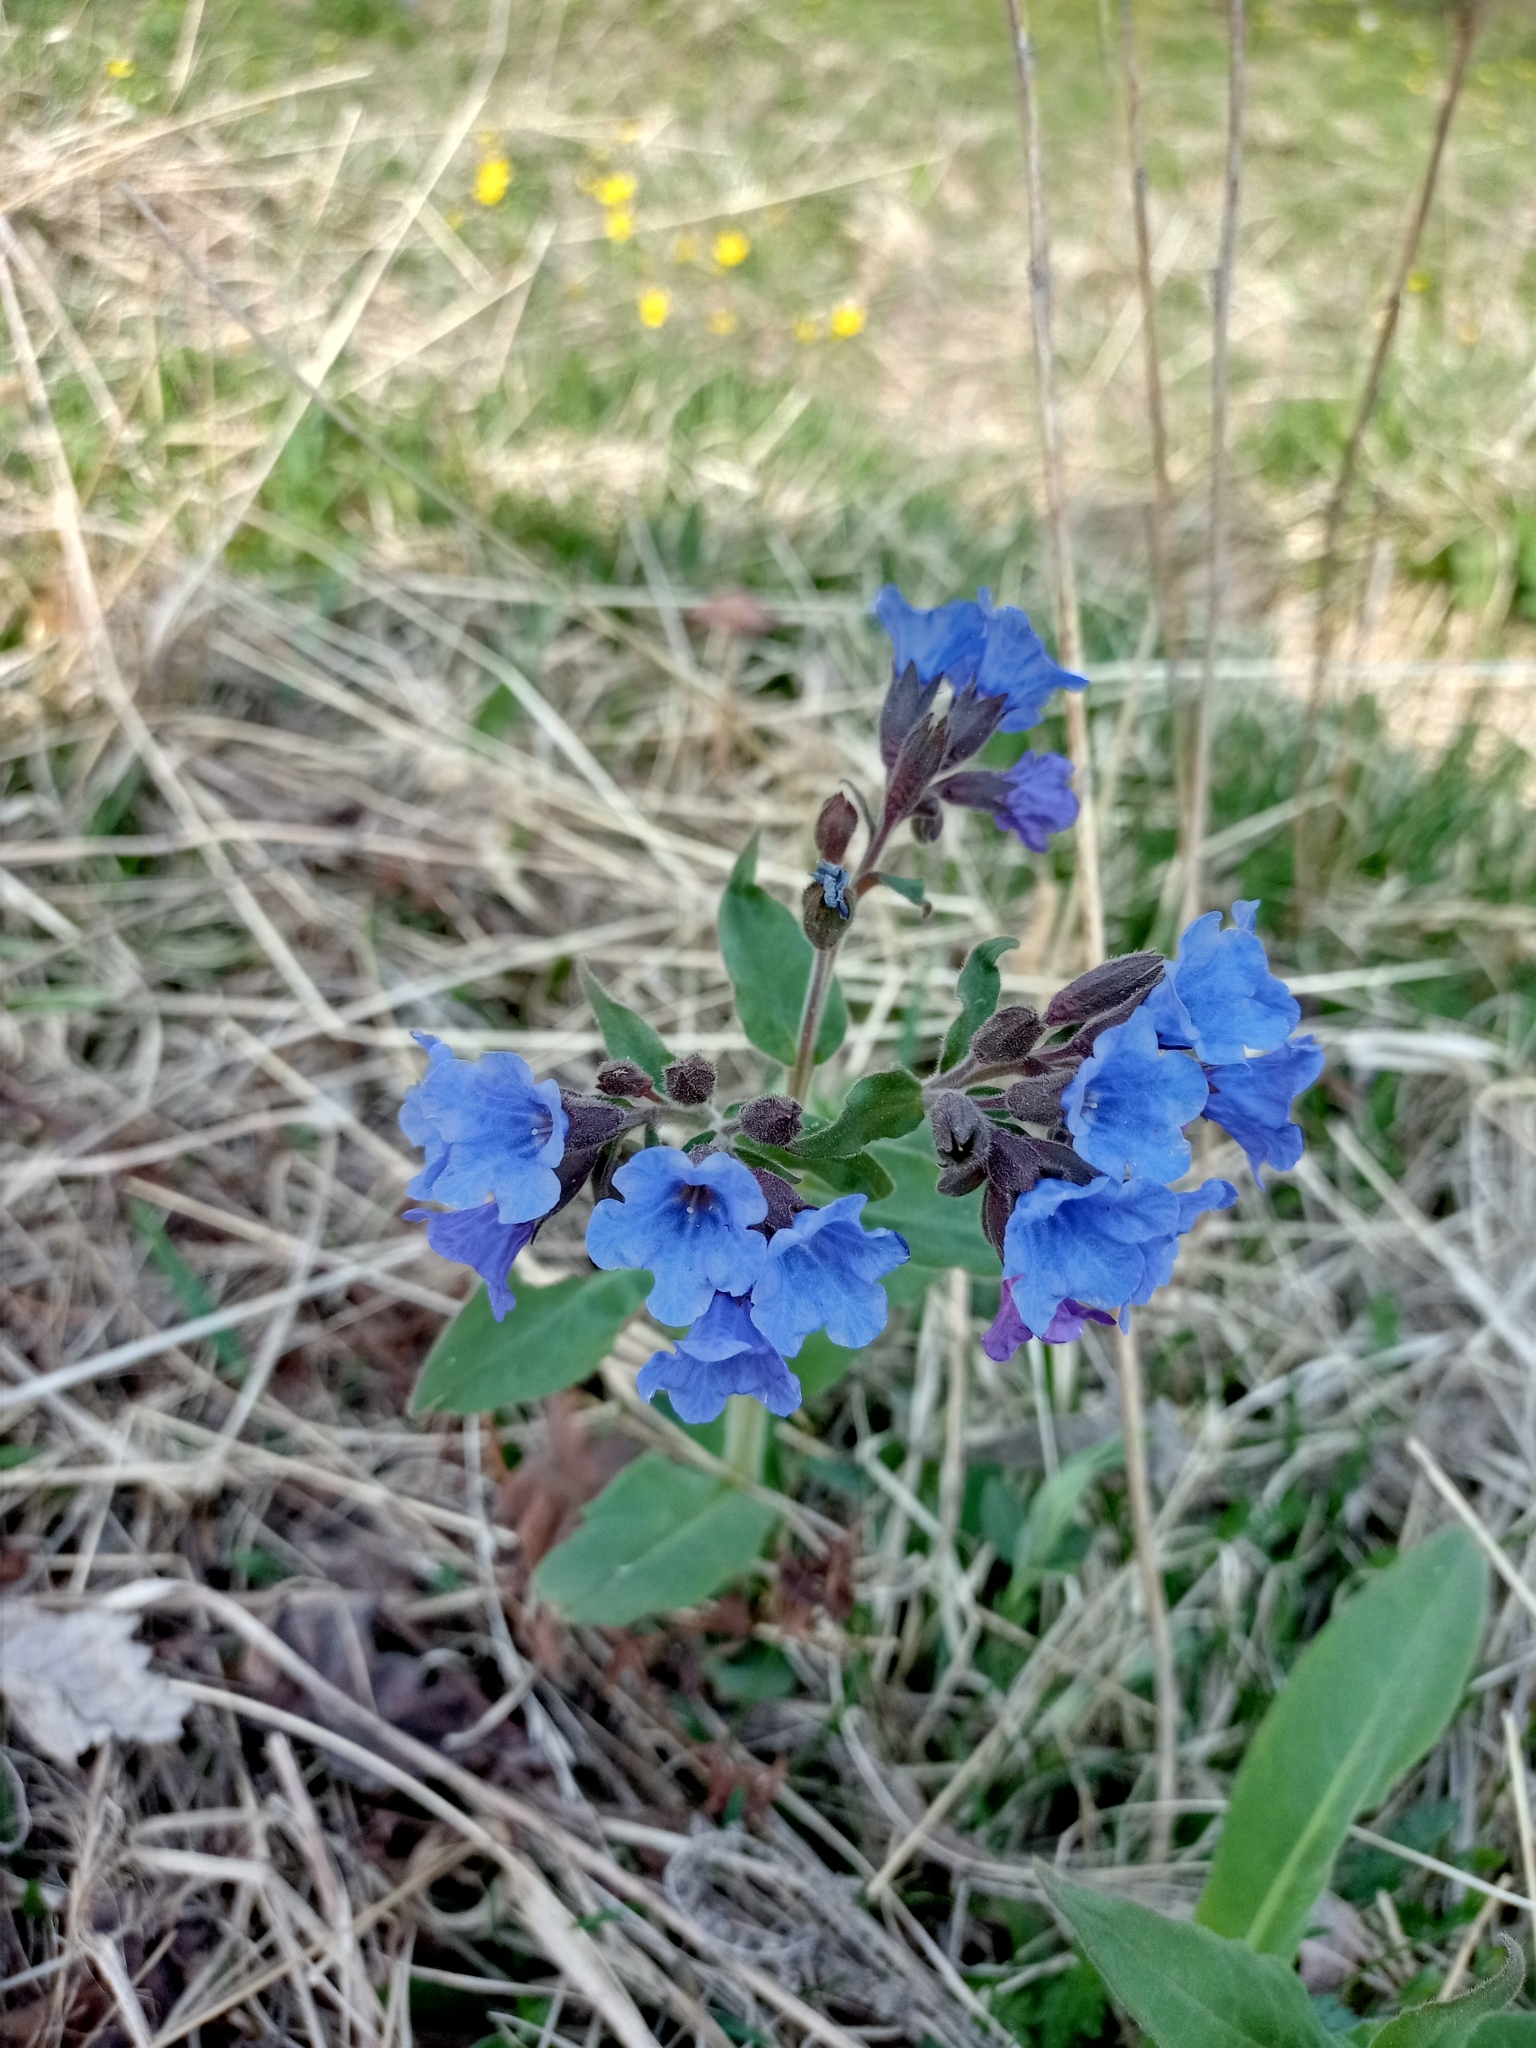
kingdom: Plantae
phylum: Tracheophyta
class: Magnoliopsida
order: Boraginales
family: Boraginaceae
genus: Pulmonaria
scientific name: Pulmonaria mollis
